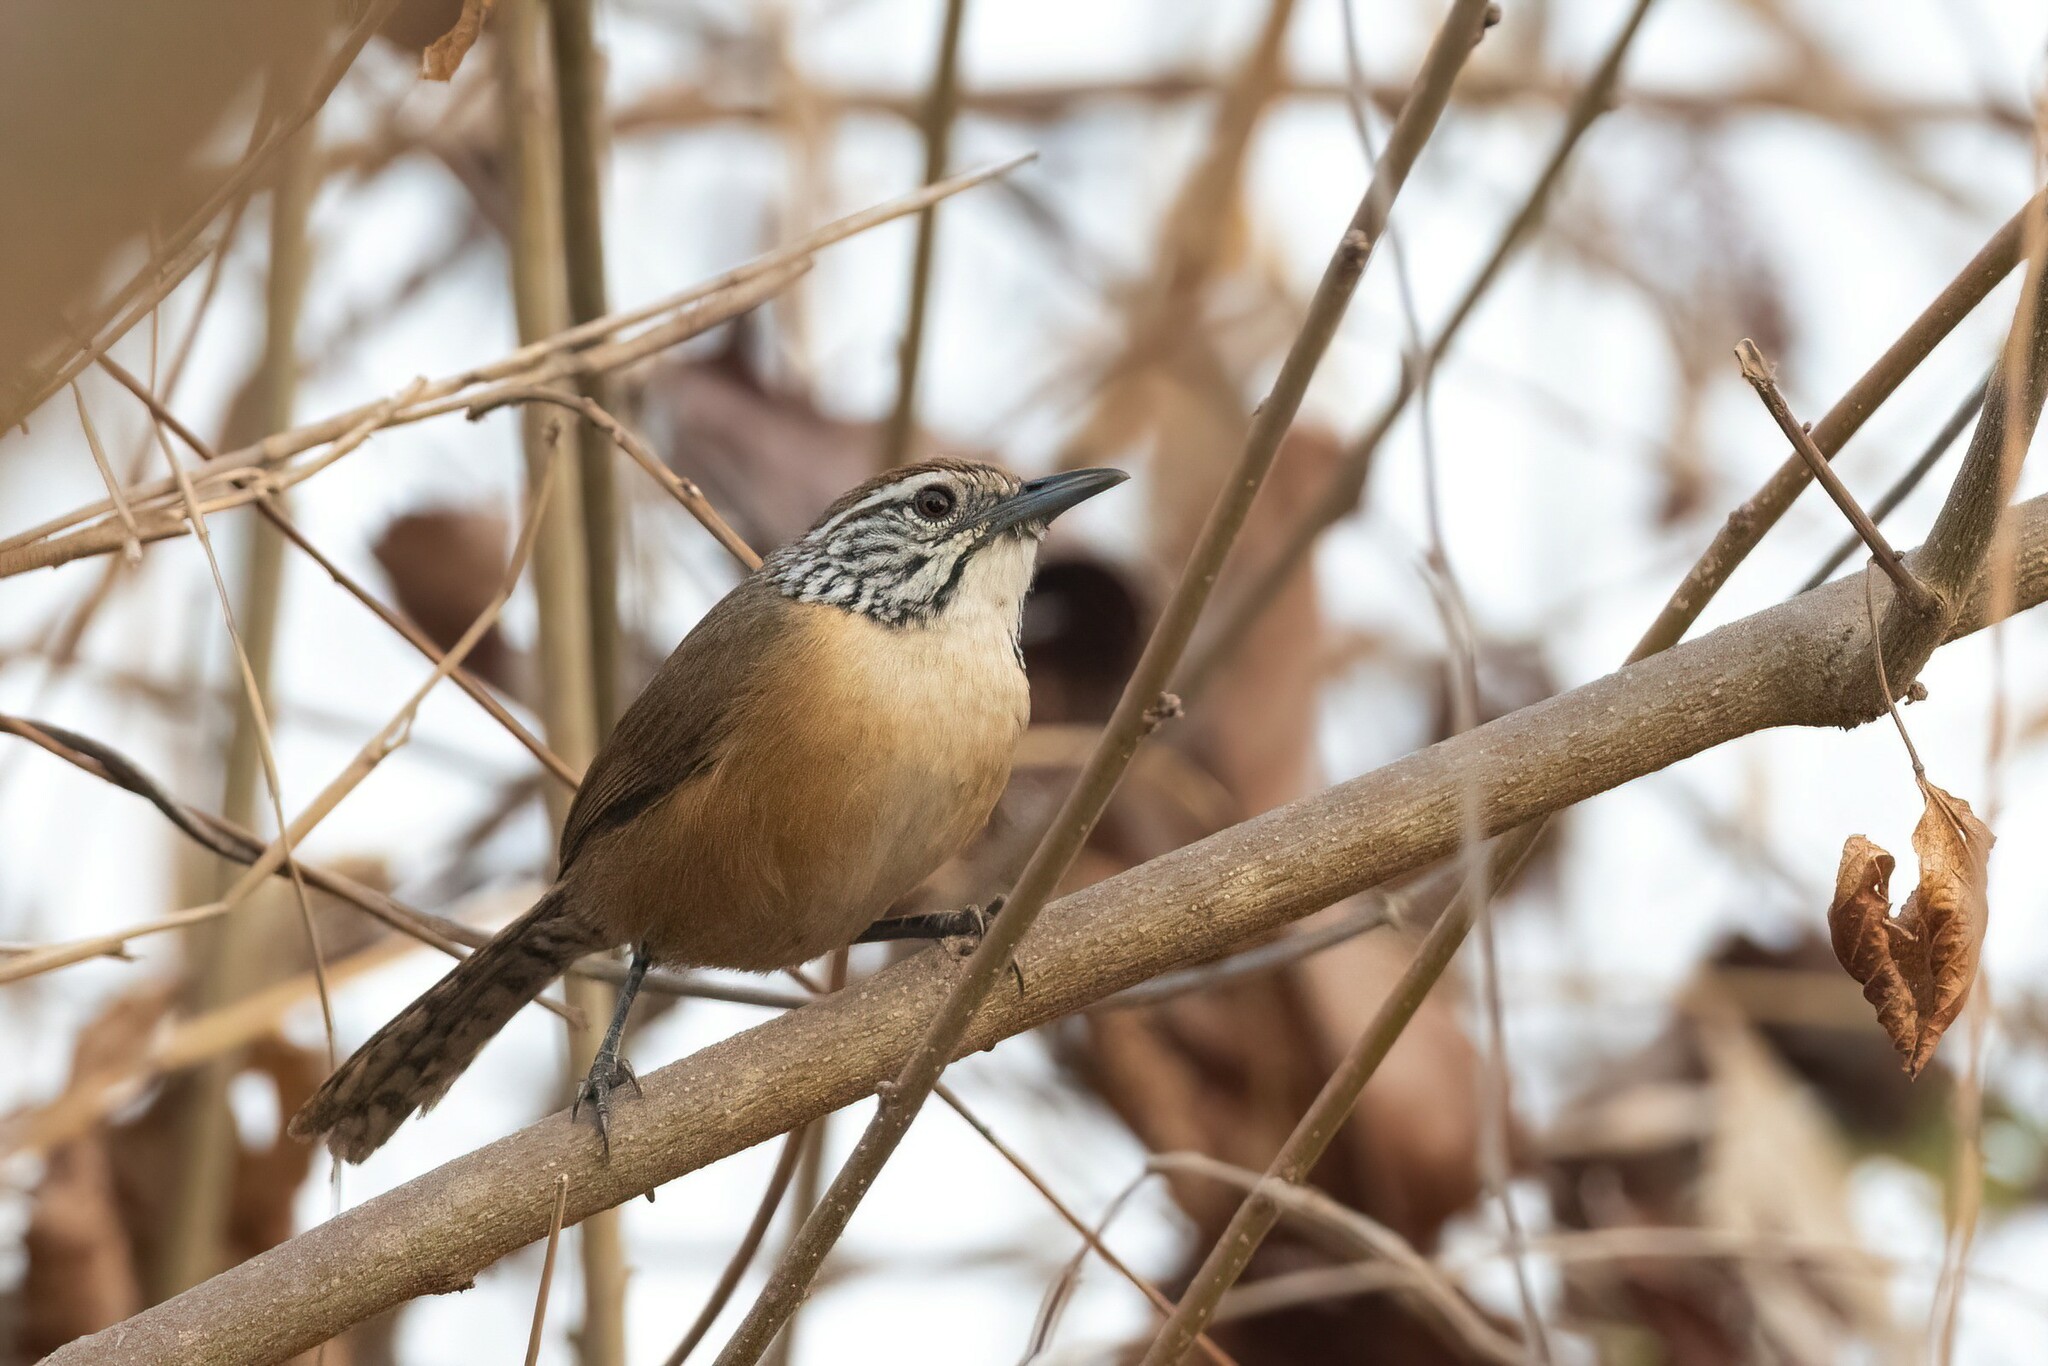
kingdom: Animalia
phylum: Chordata
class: Aves
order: Passeriformes
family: Troglodytidae
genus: Pheugopedius
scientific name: Pheugopedius felix
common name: Happy wren
